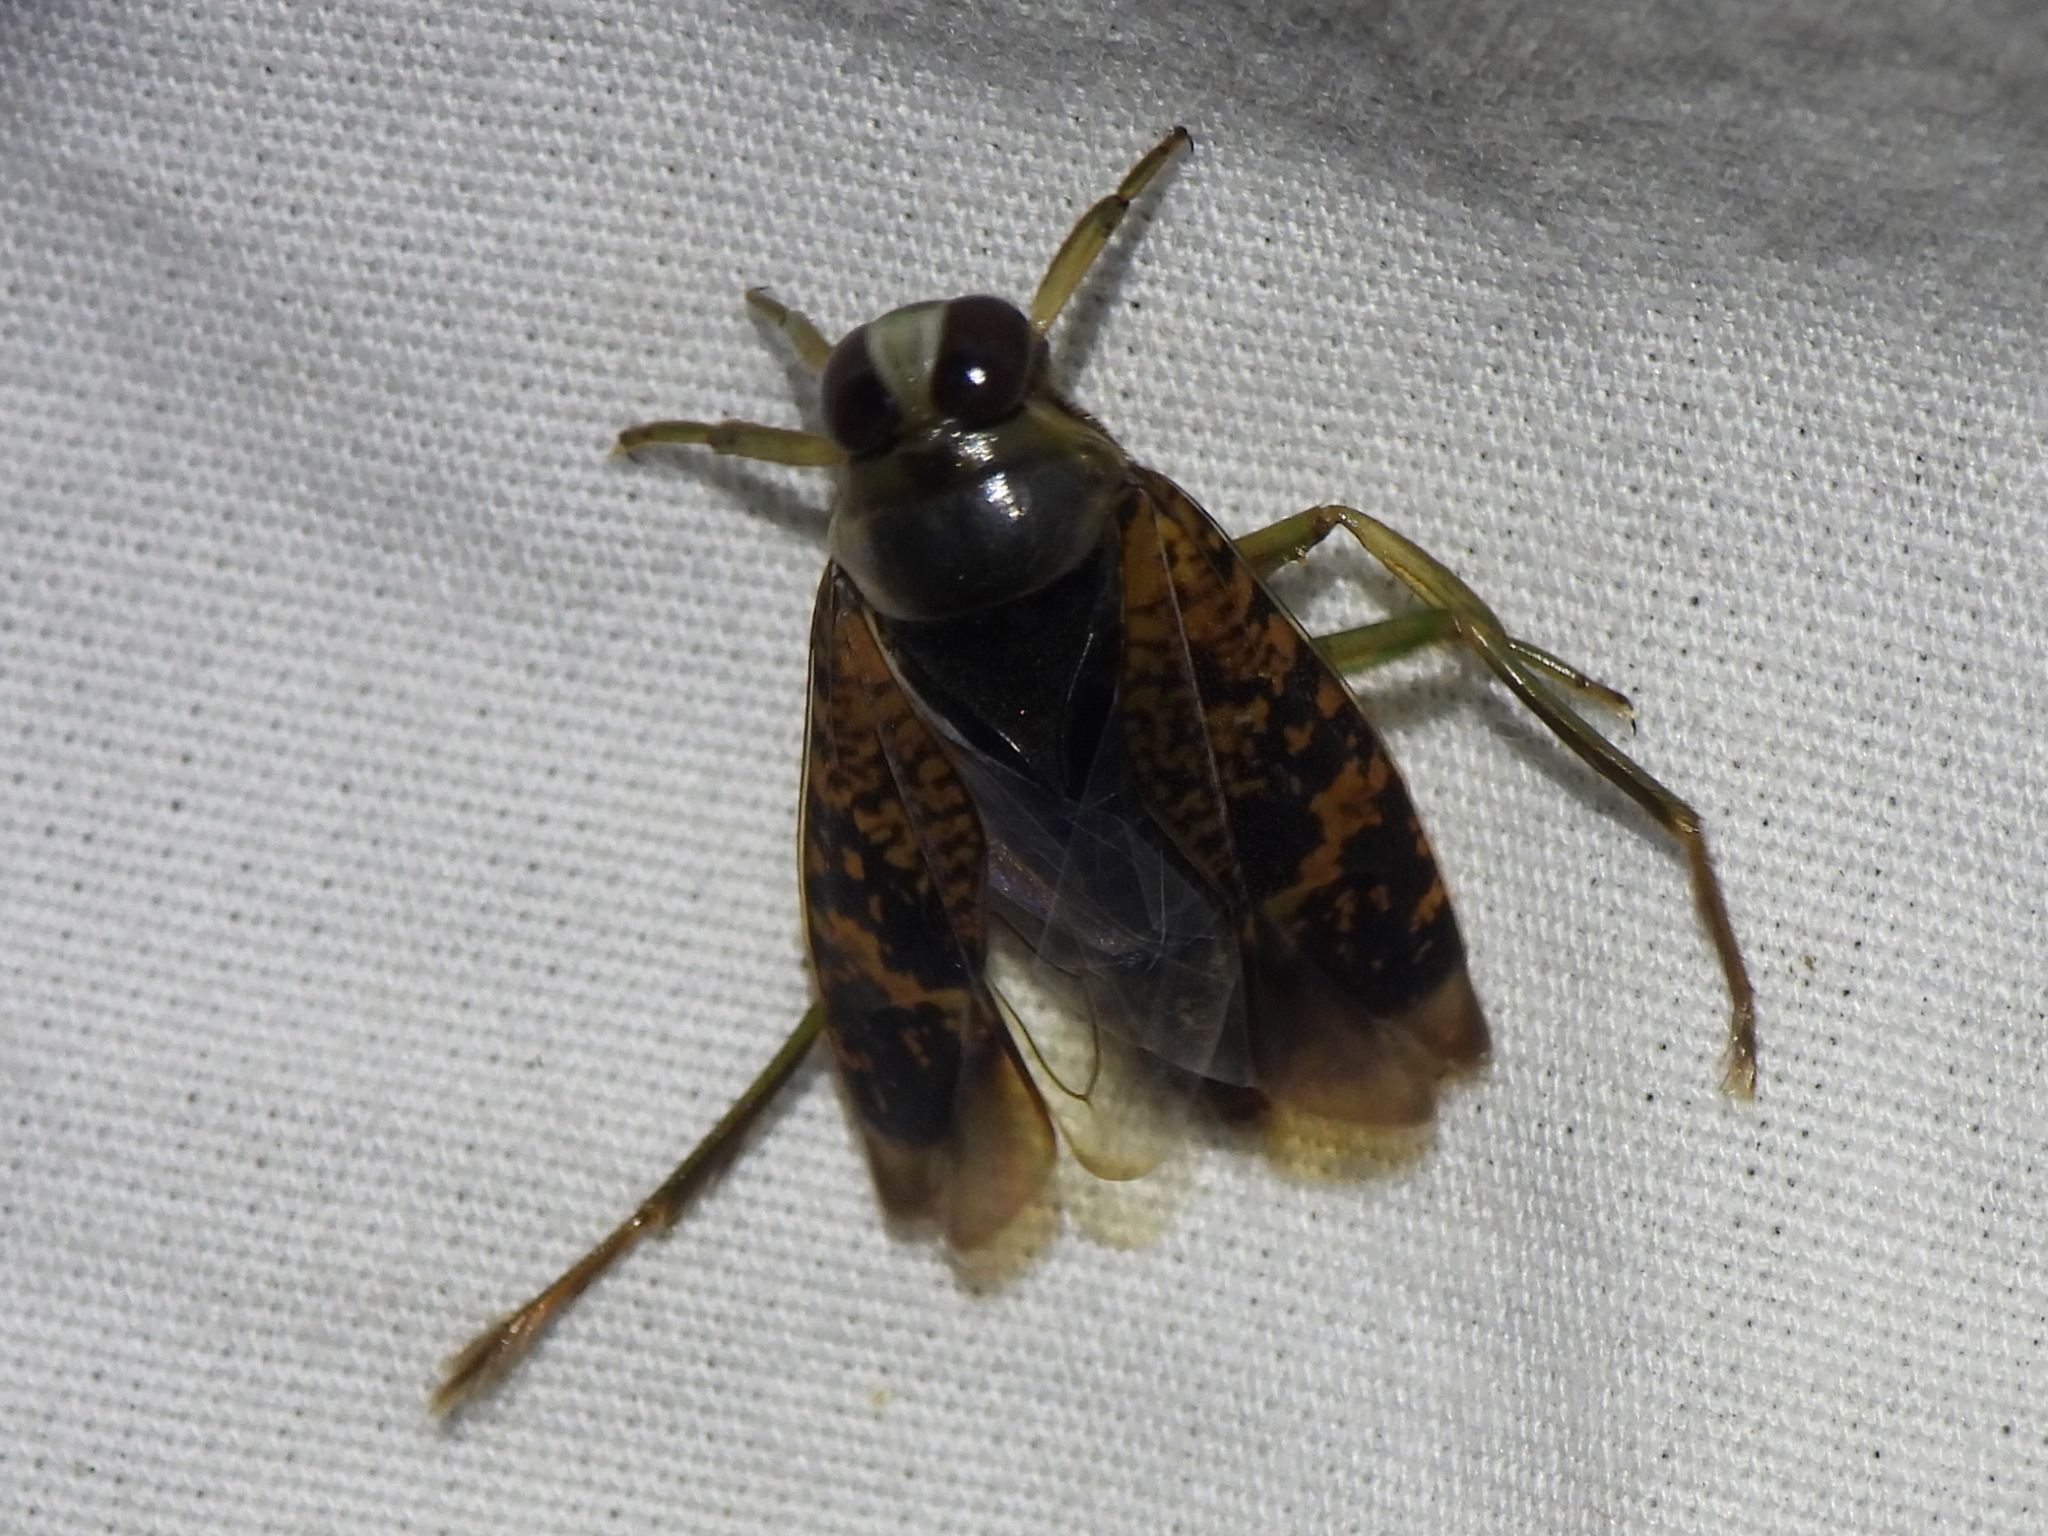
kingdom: Animalia
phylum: Arthropoda
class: Insecta
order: Hemiptera
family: Notonectidae
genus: Notonecta
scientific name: Notonecta irrorata
